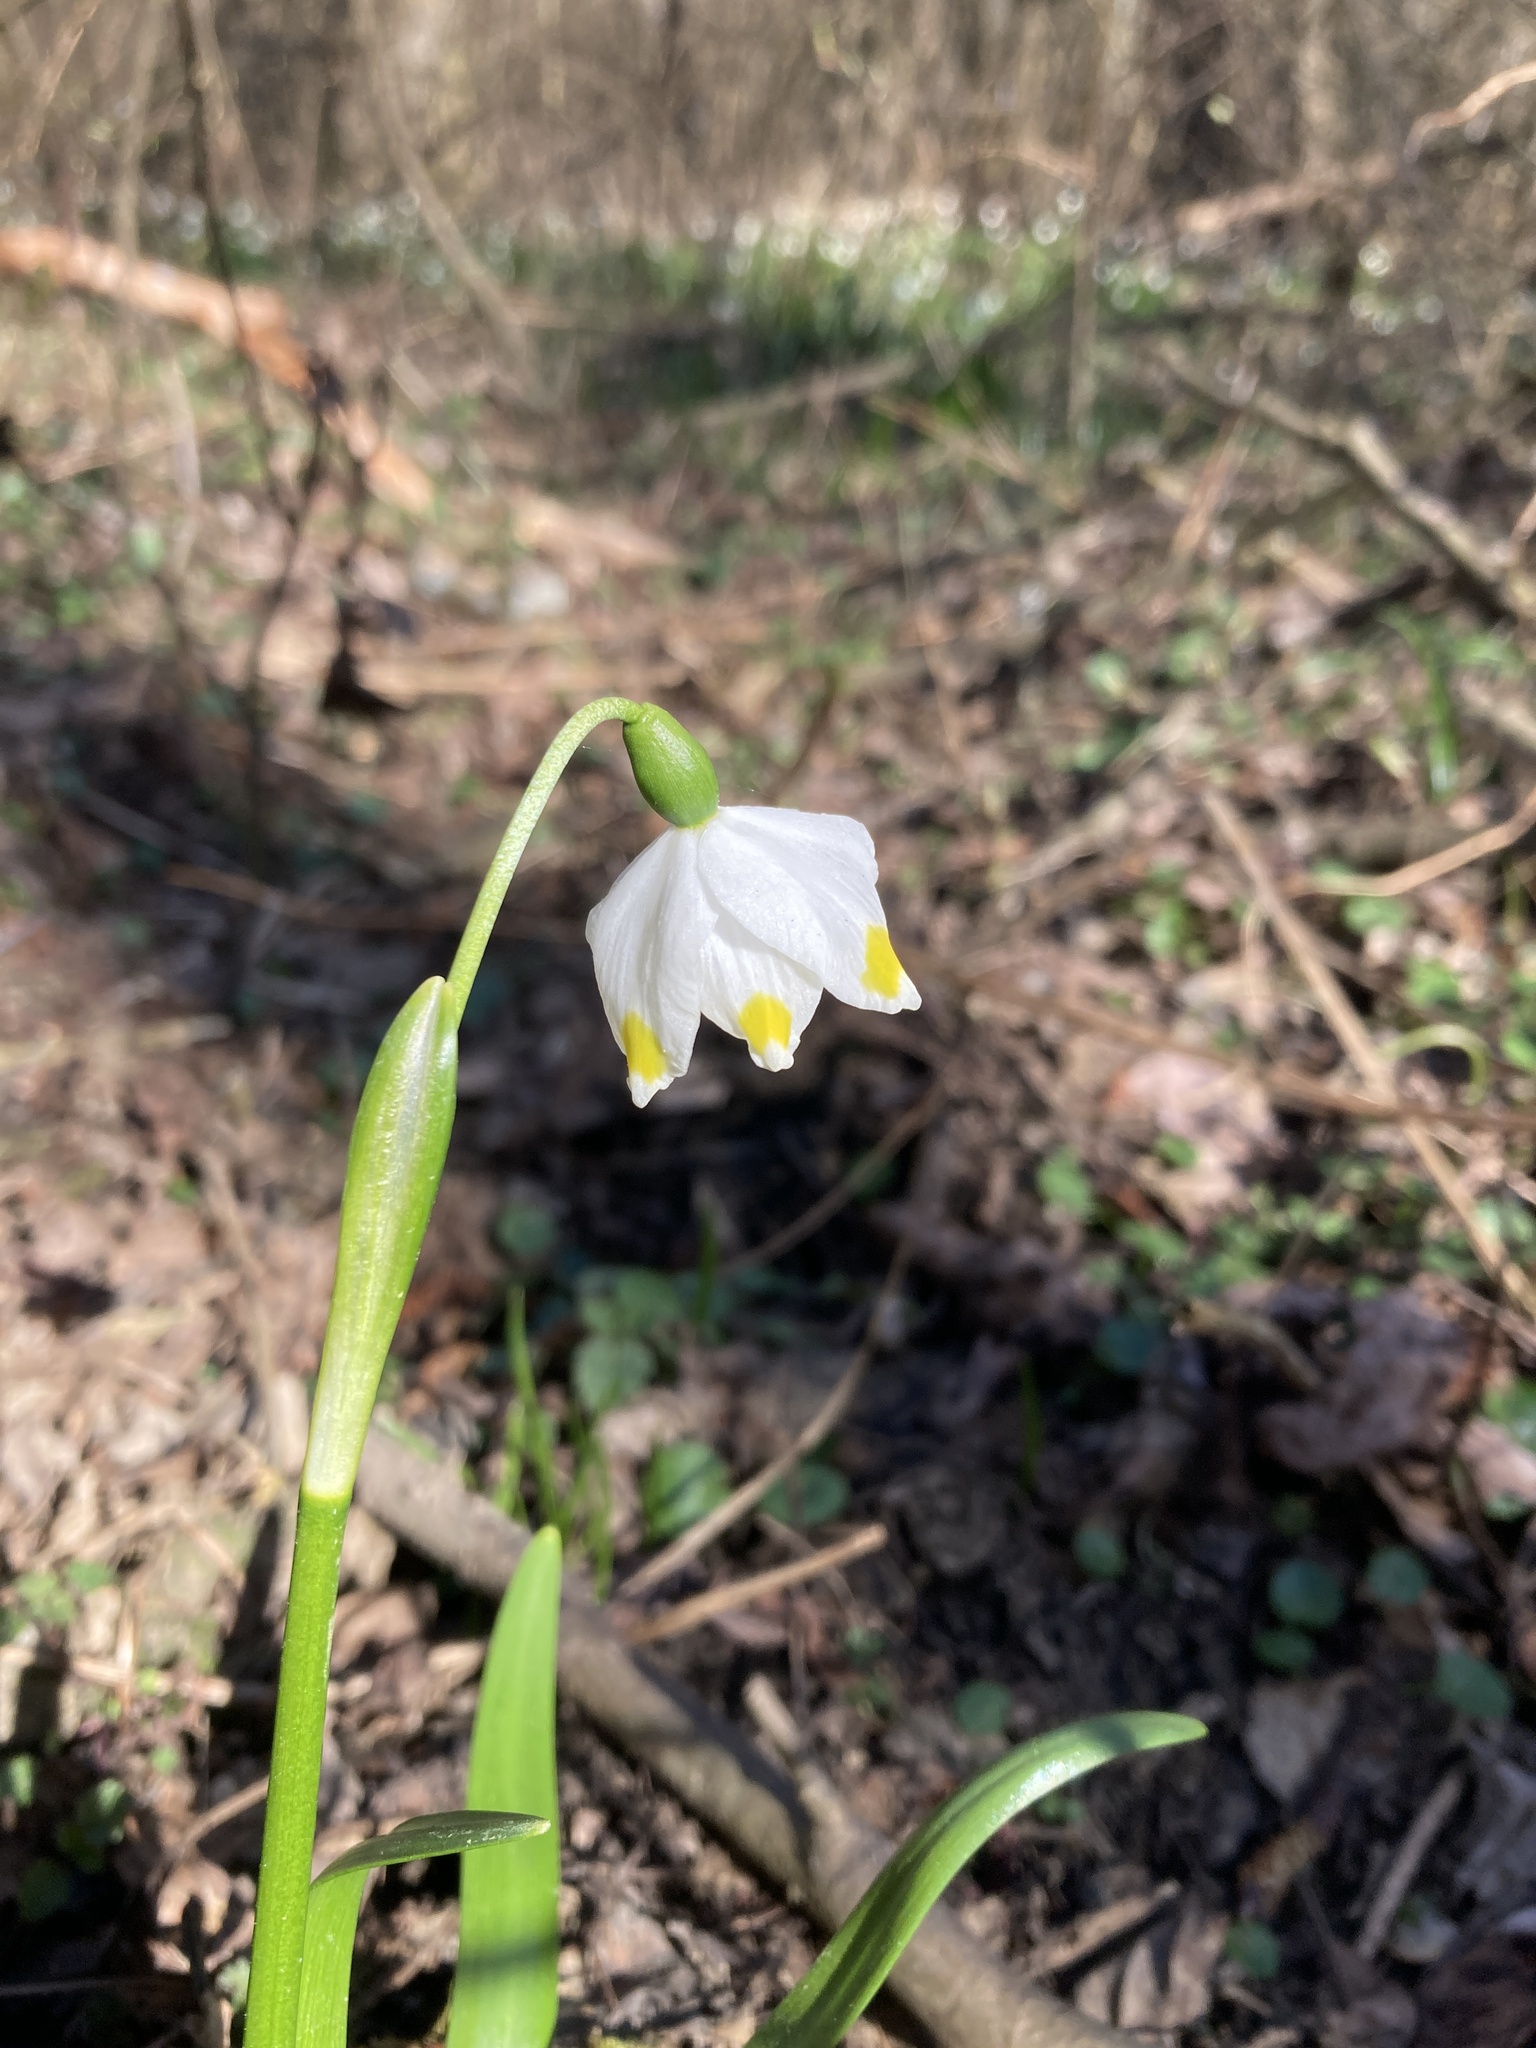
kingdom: Plantae
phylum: Tracheophyta
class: Liliopsida
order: Asparagales
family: Amaryllidaceae
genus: Leucojum
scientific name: Leucojum vernum
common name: Spring snowflake
